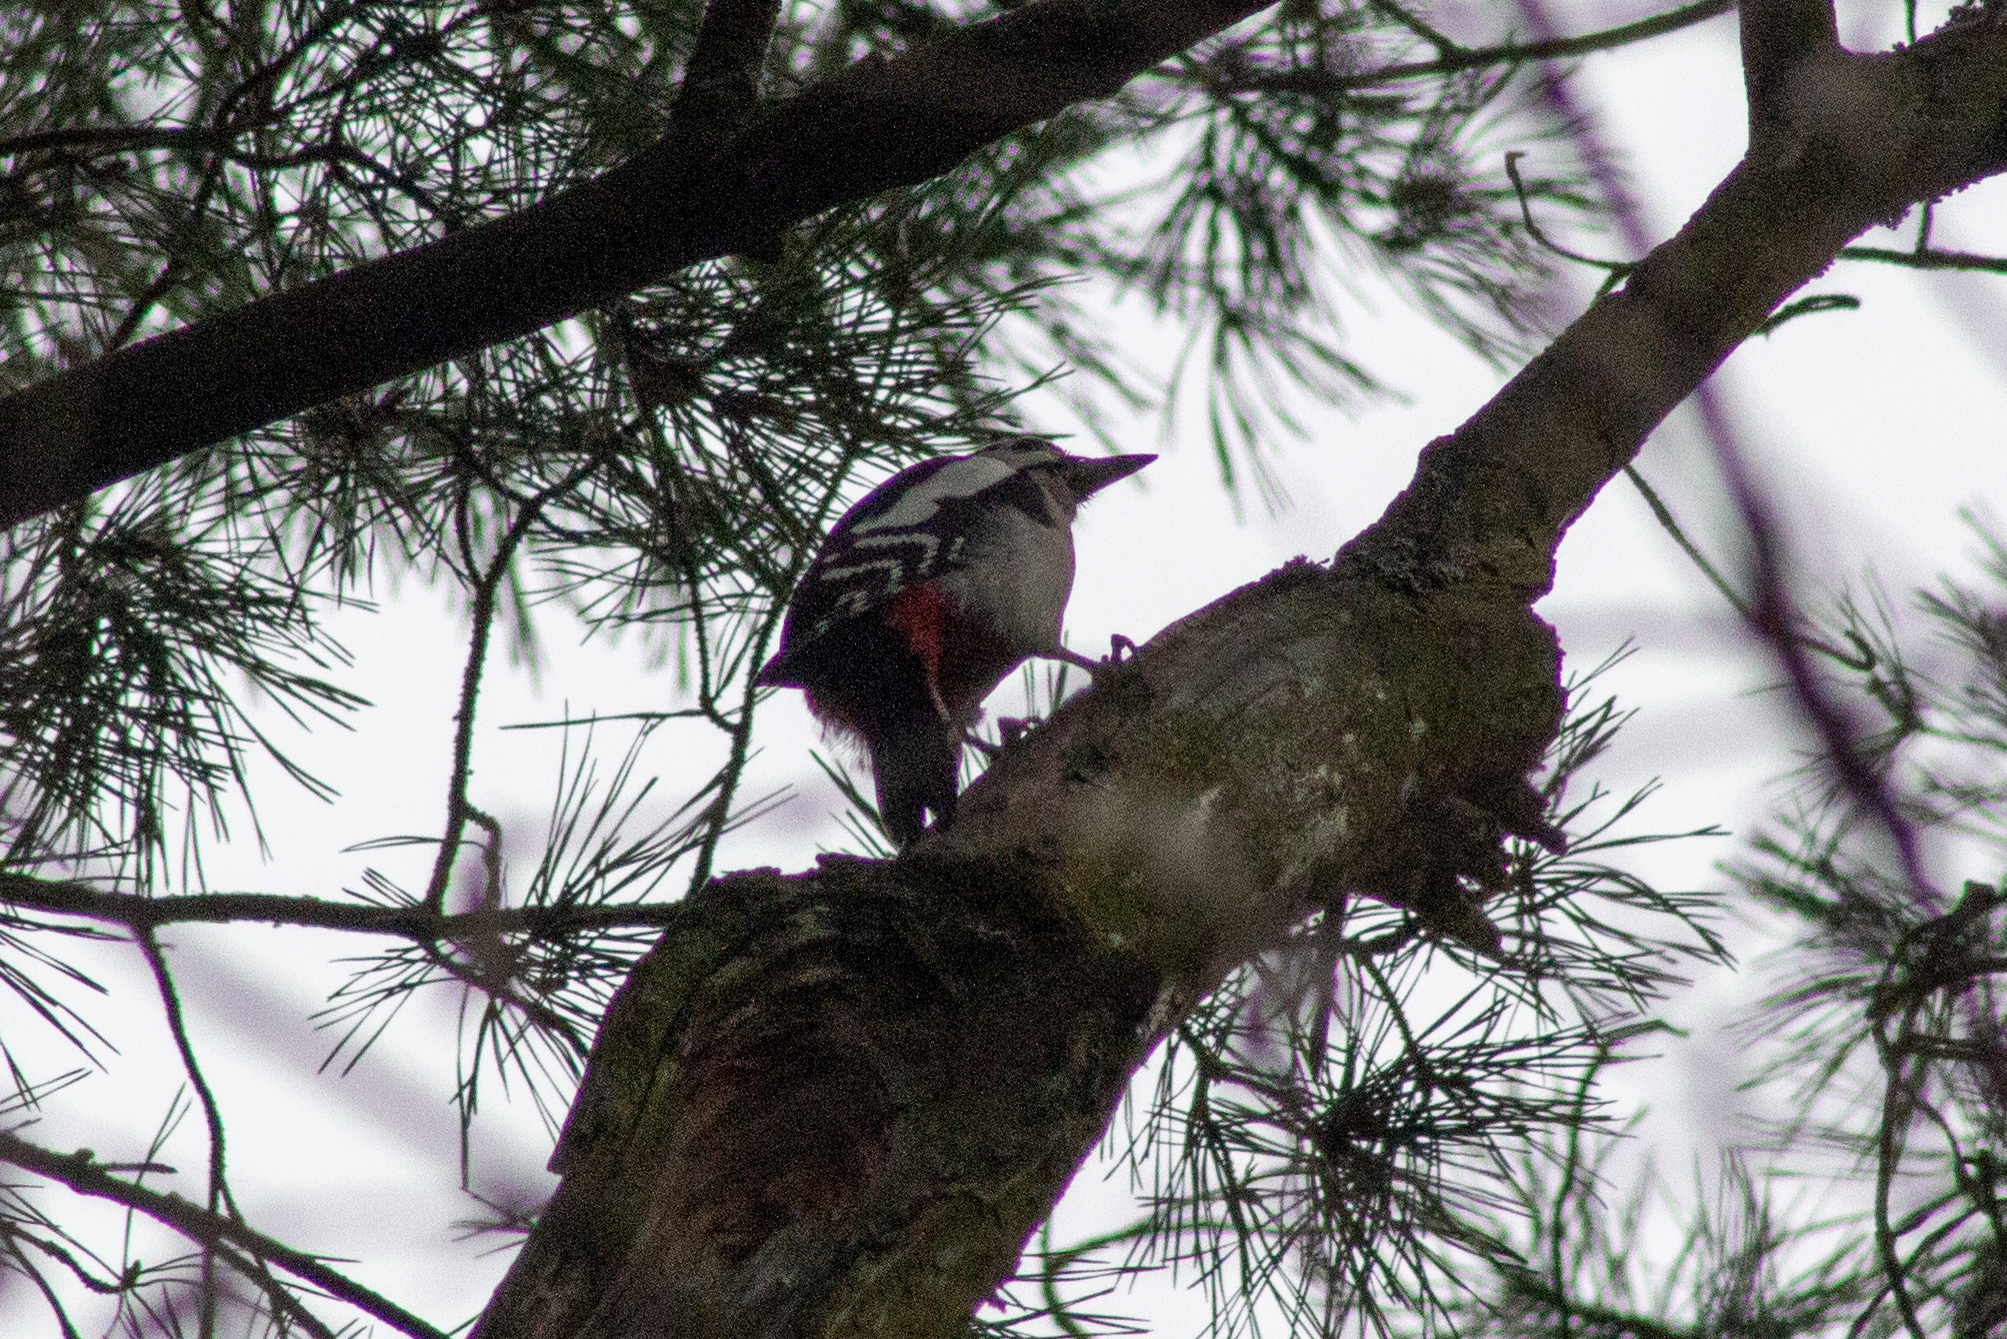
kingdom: Animalia
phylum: Chordata
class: Aves
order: Piciformes
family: Picidae
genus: Dendrocopos
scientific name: Dendrocopos major
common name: Great spotted woodpecker
